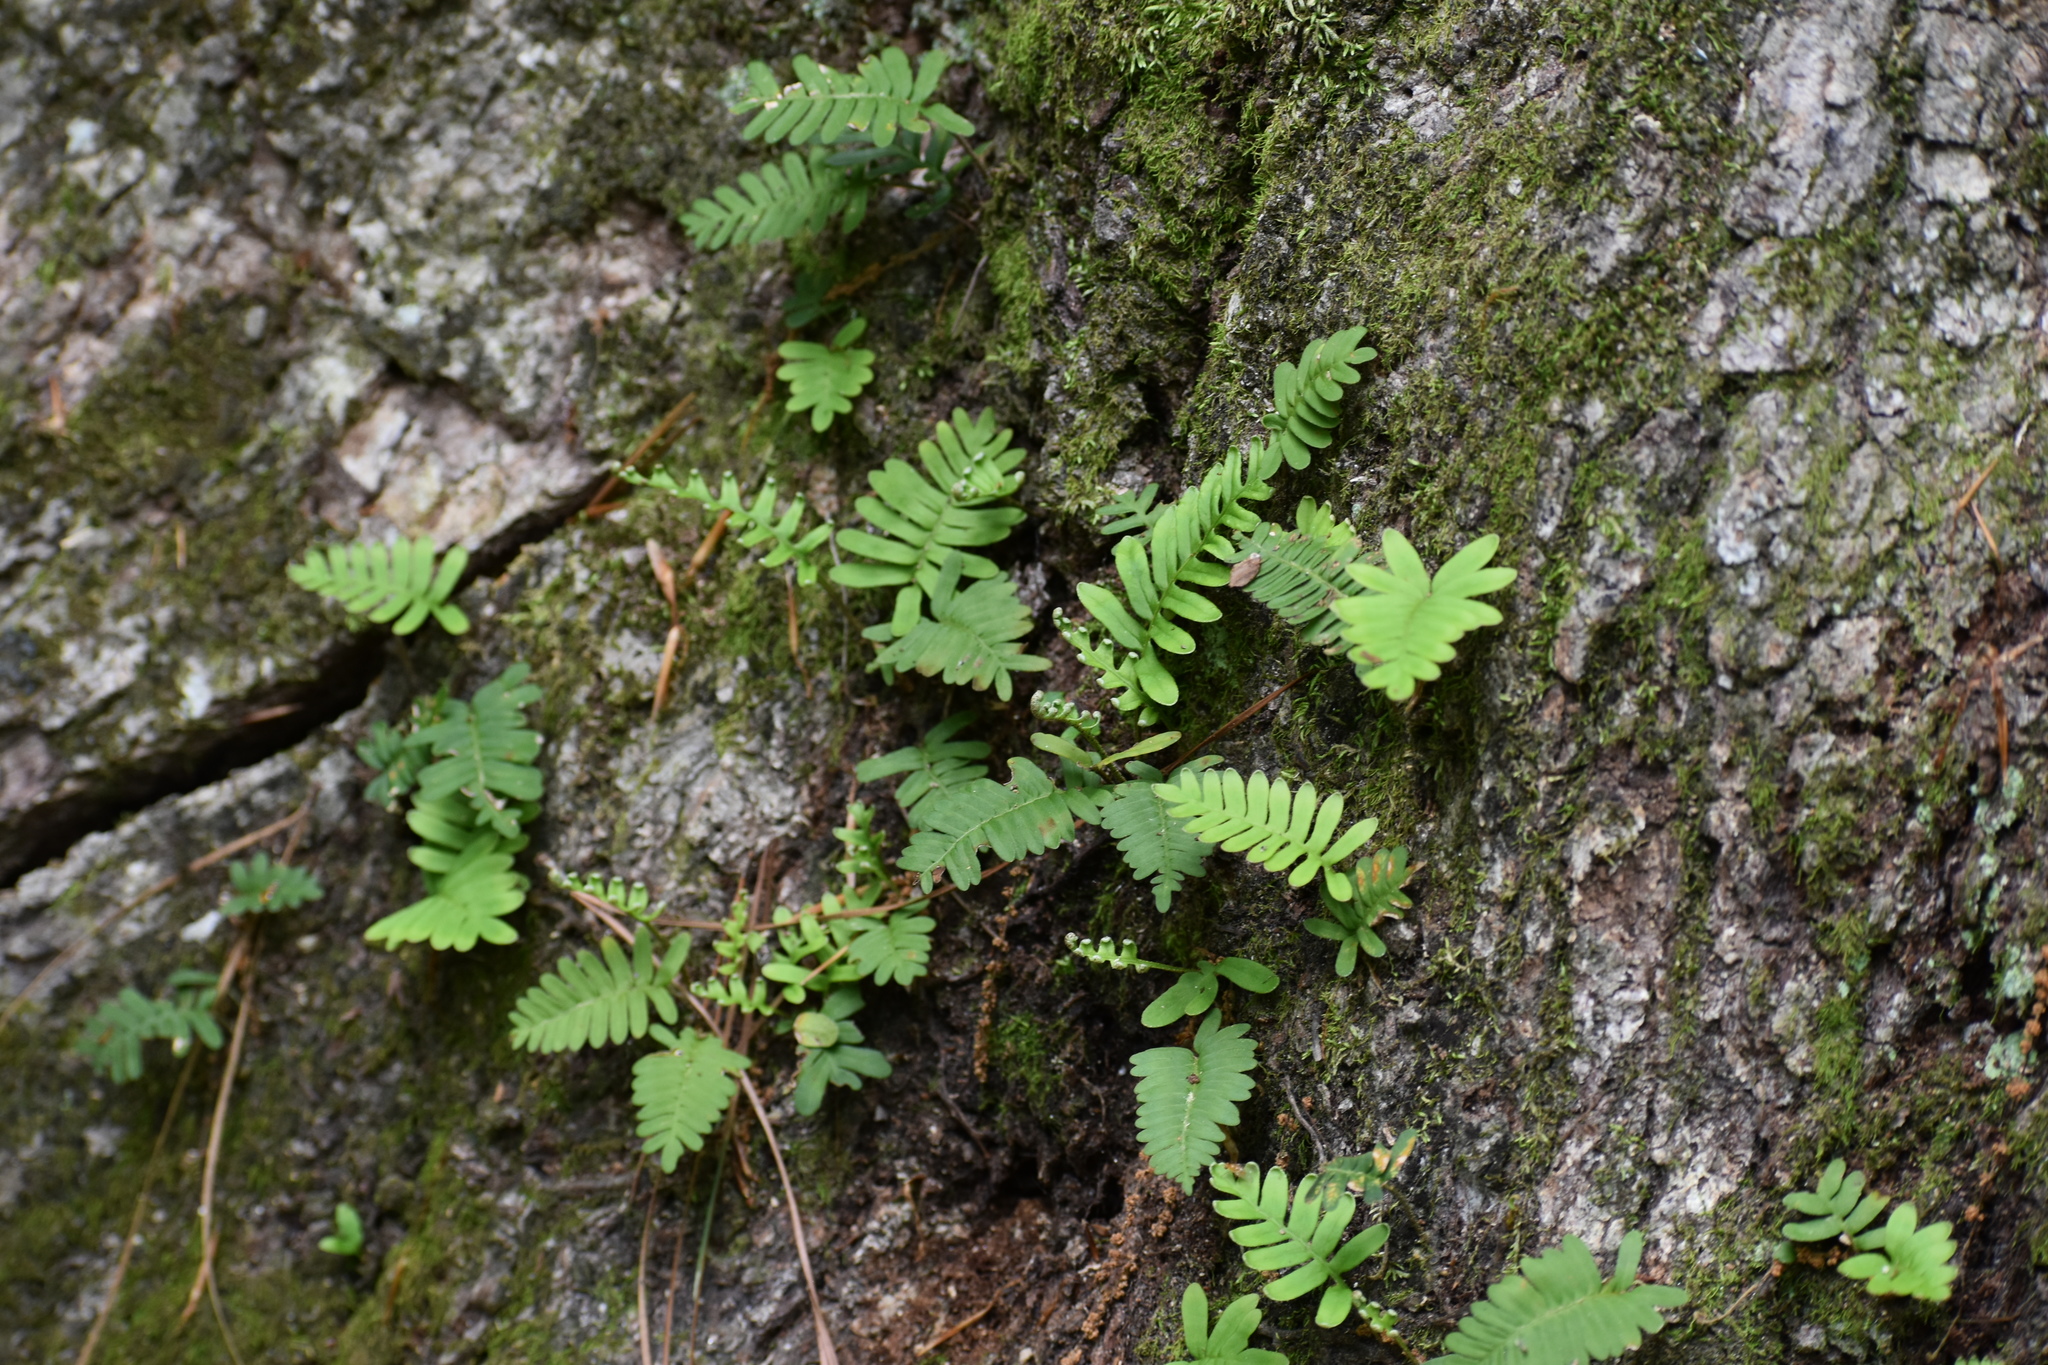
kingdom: Plantae
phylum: Tracheophyta
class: Polypodiopsida
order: Polypodiales
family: Polypodiaceae
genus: Pleopeltis
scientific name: Pleopeltis michauxiana
